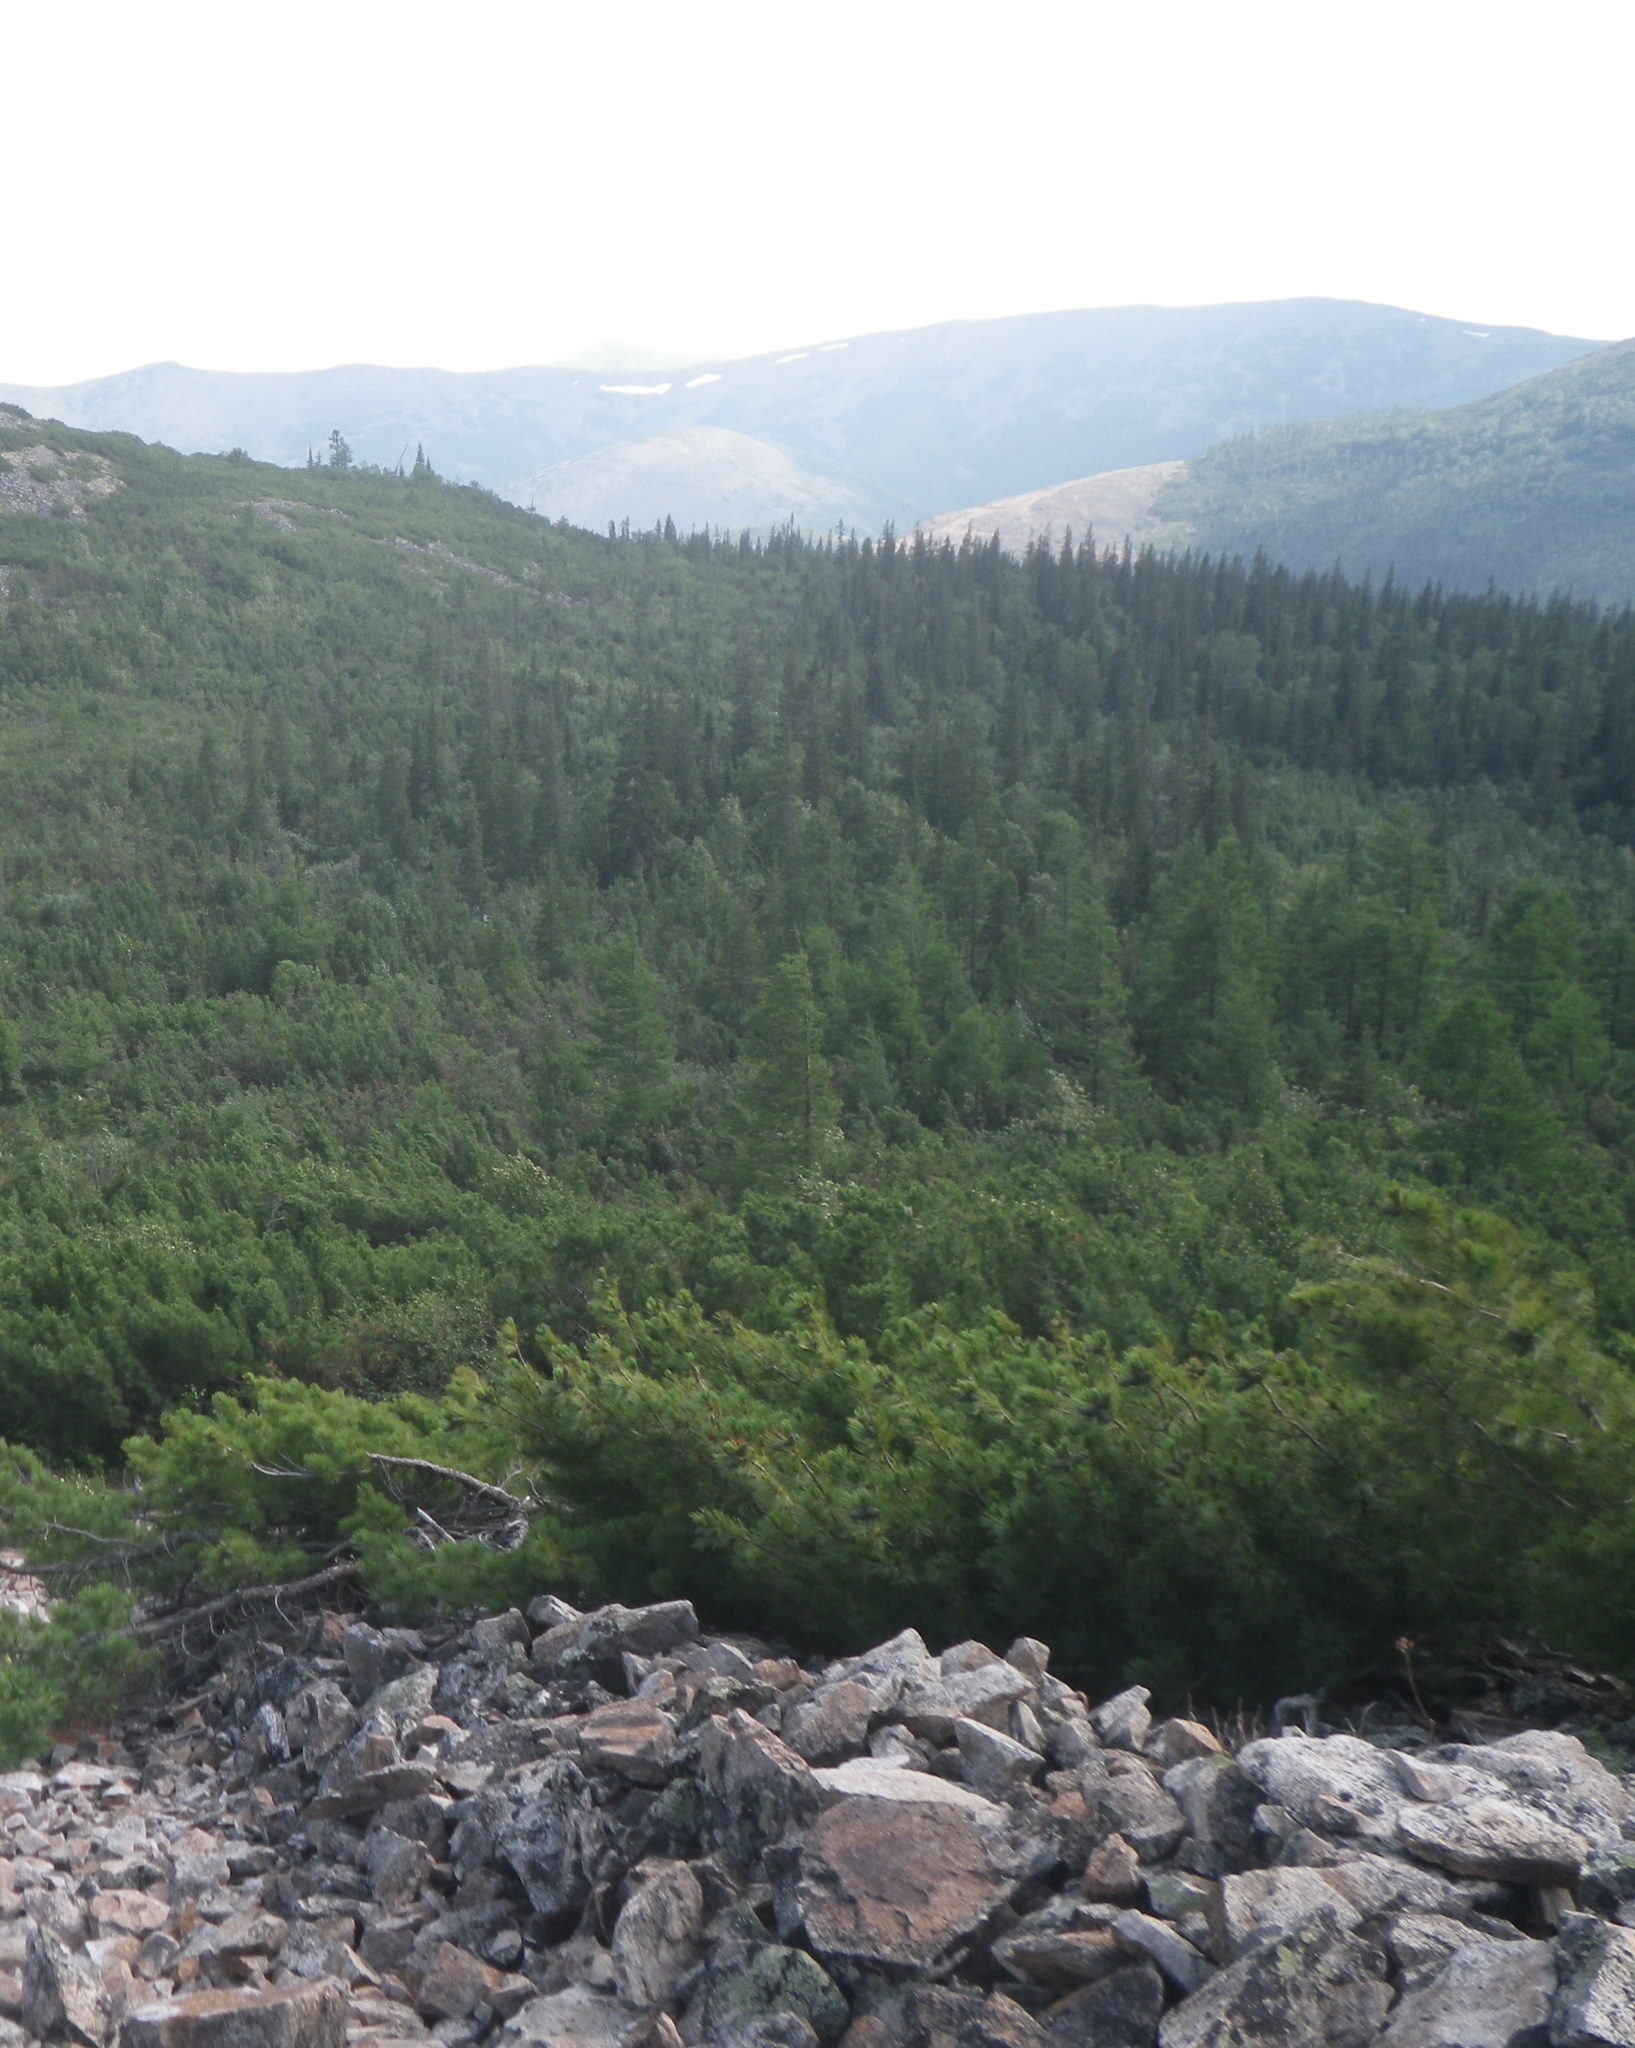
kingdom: Plantae
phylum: Tracheophyta
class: Pinopsida
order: Pinales
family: Pinaceae
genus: Pinus
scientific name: Pinus pumila
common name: Dwarf siberian pine
